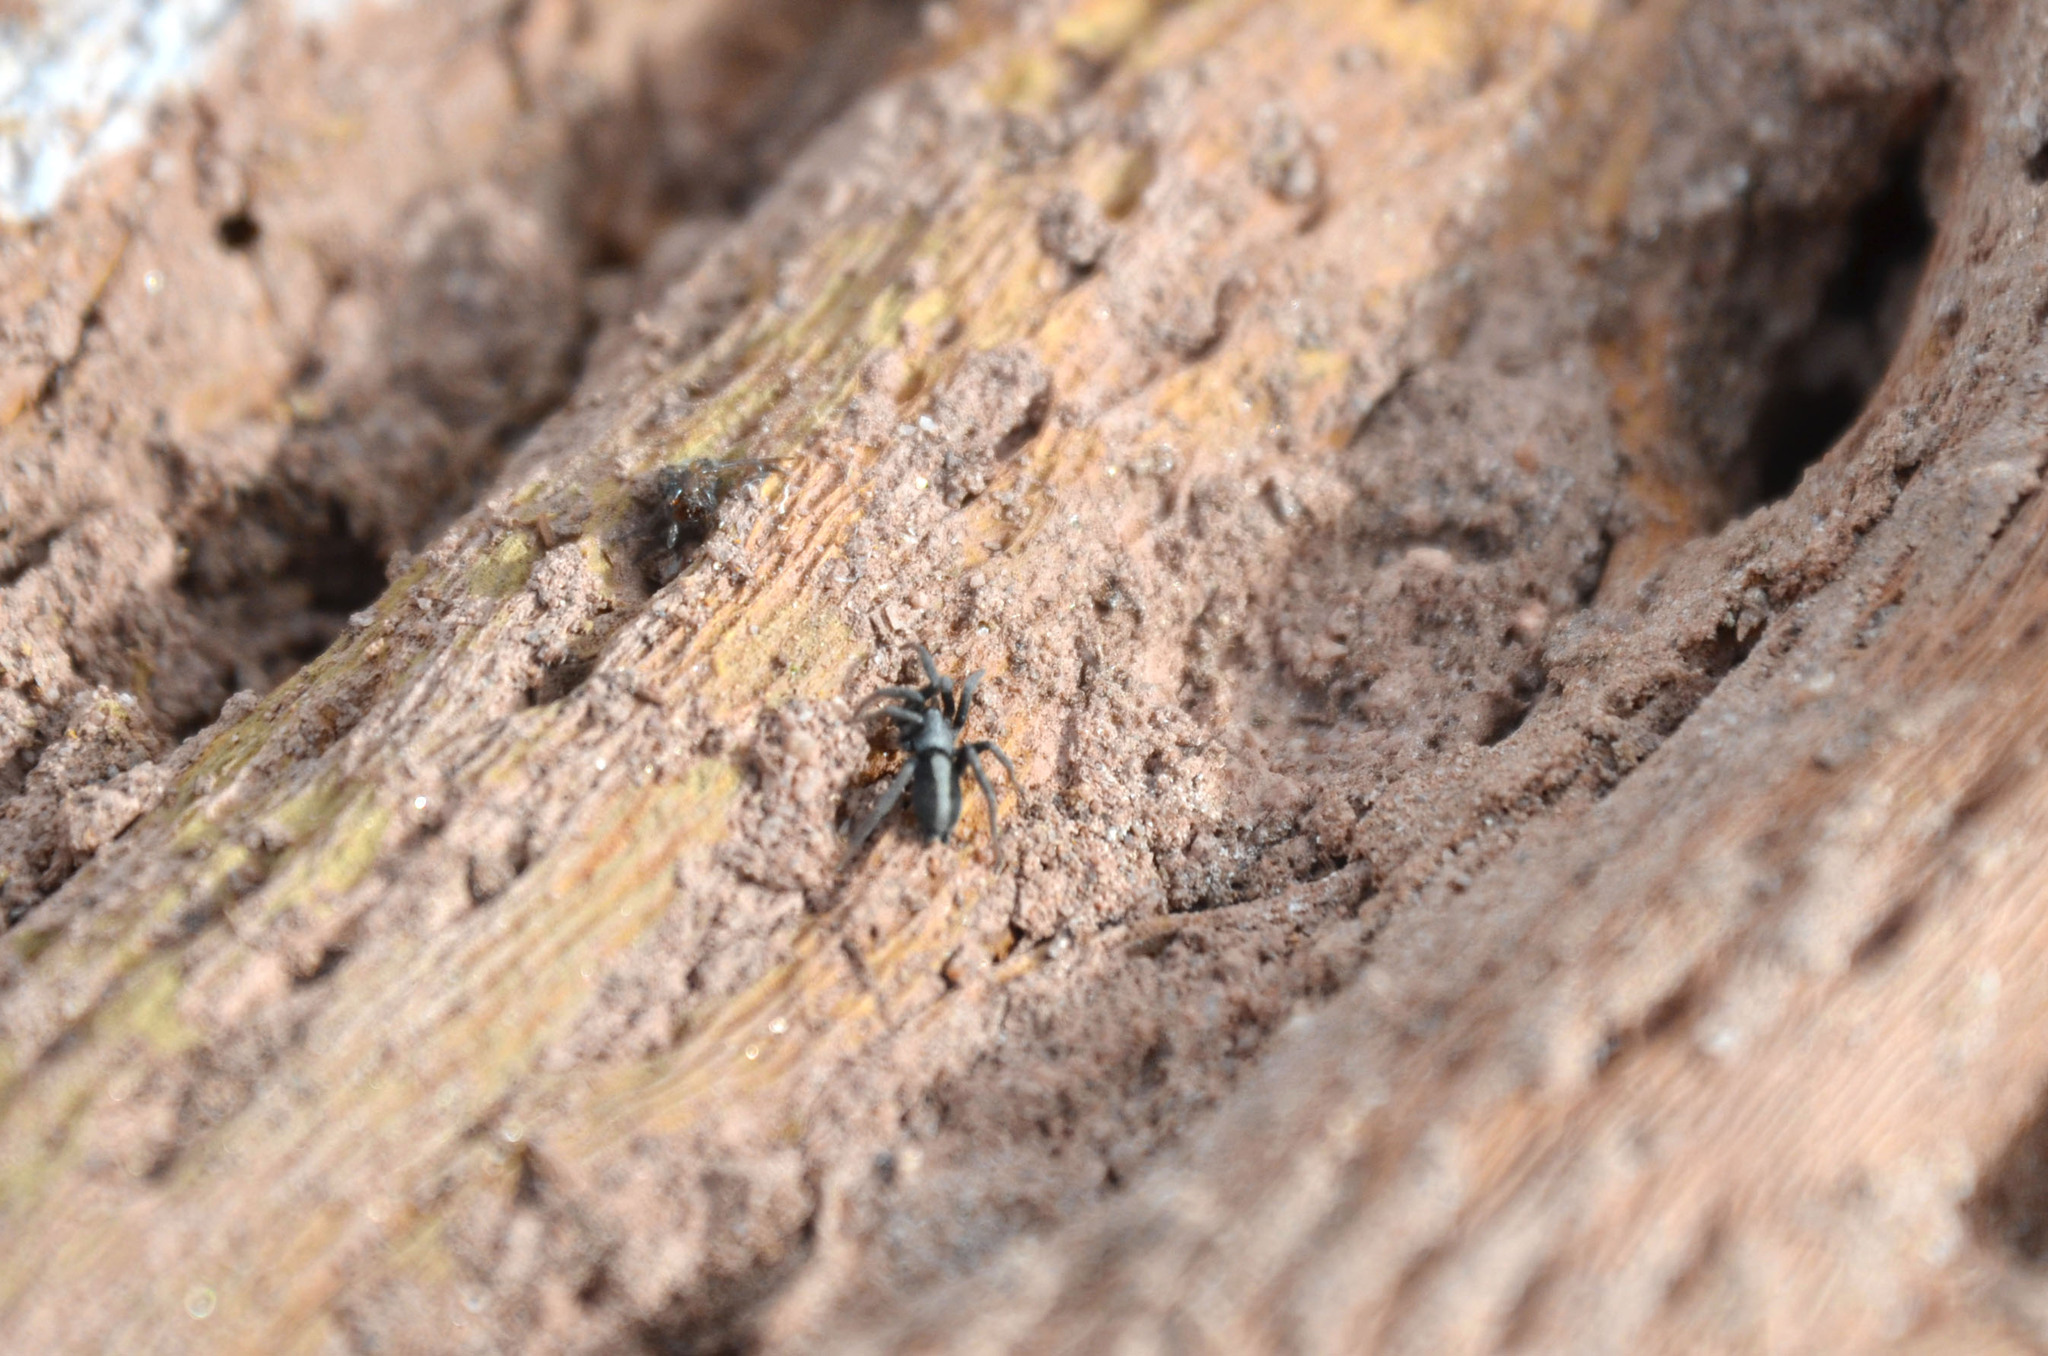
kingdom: Animalia
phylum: Arthropoda
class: Arachnida
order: Araneae
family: Gnaphosidae
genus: Apopyllus
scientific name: Apopyllus suavis
